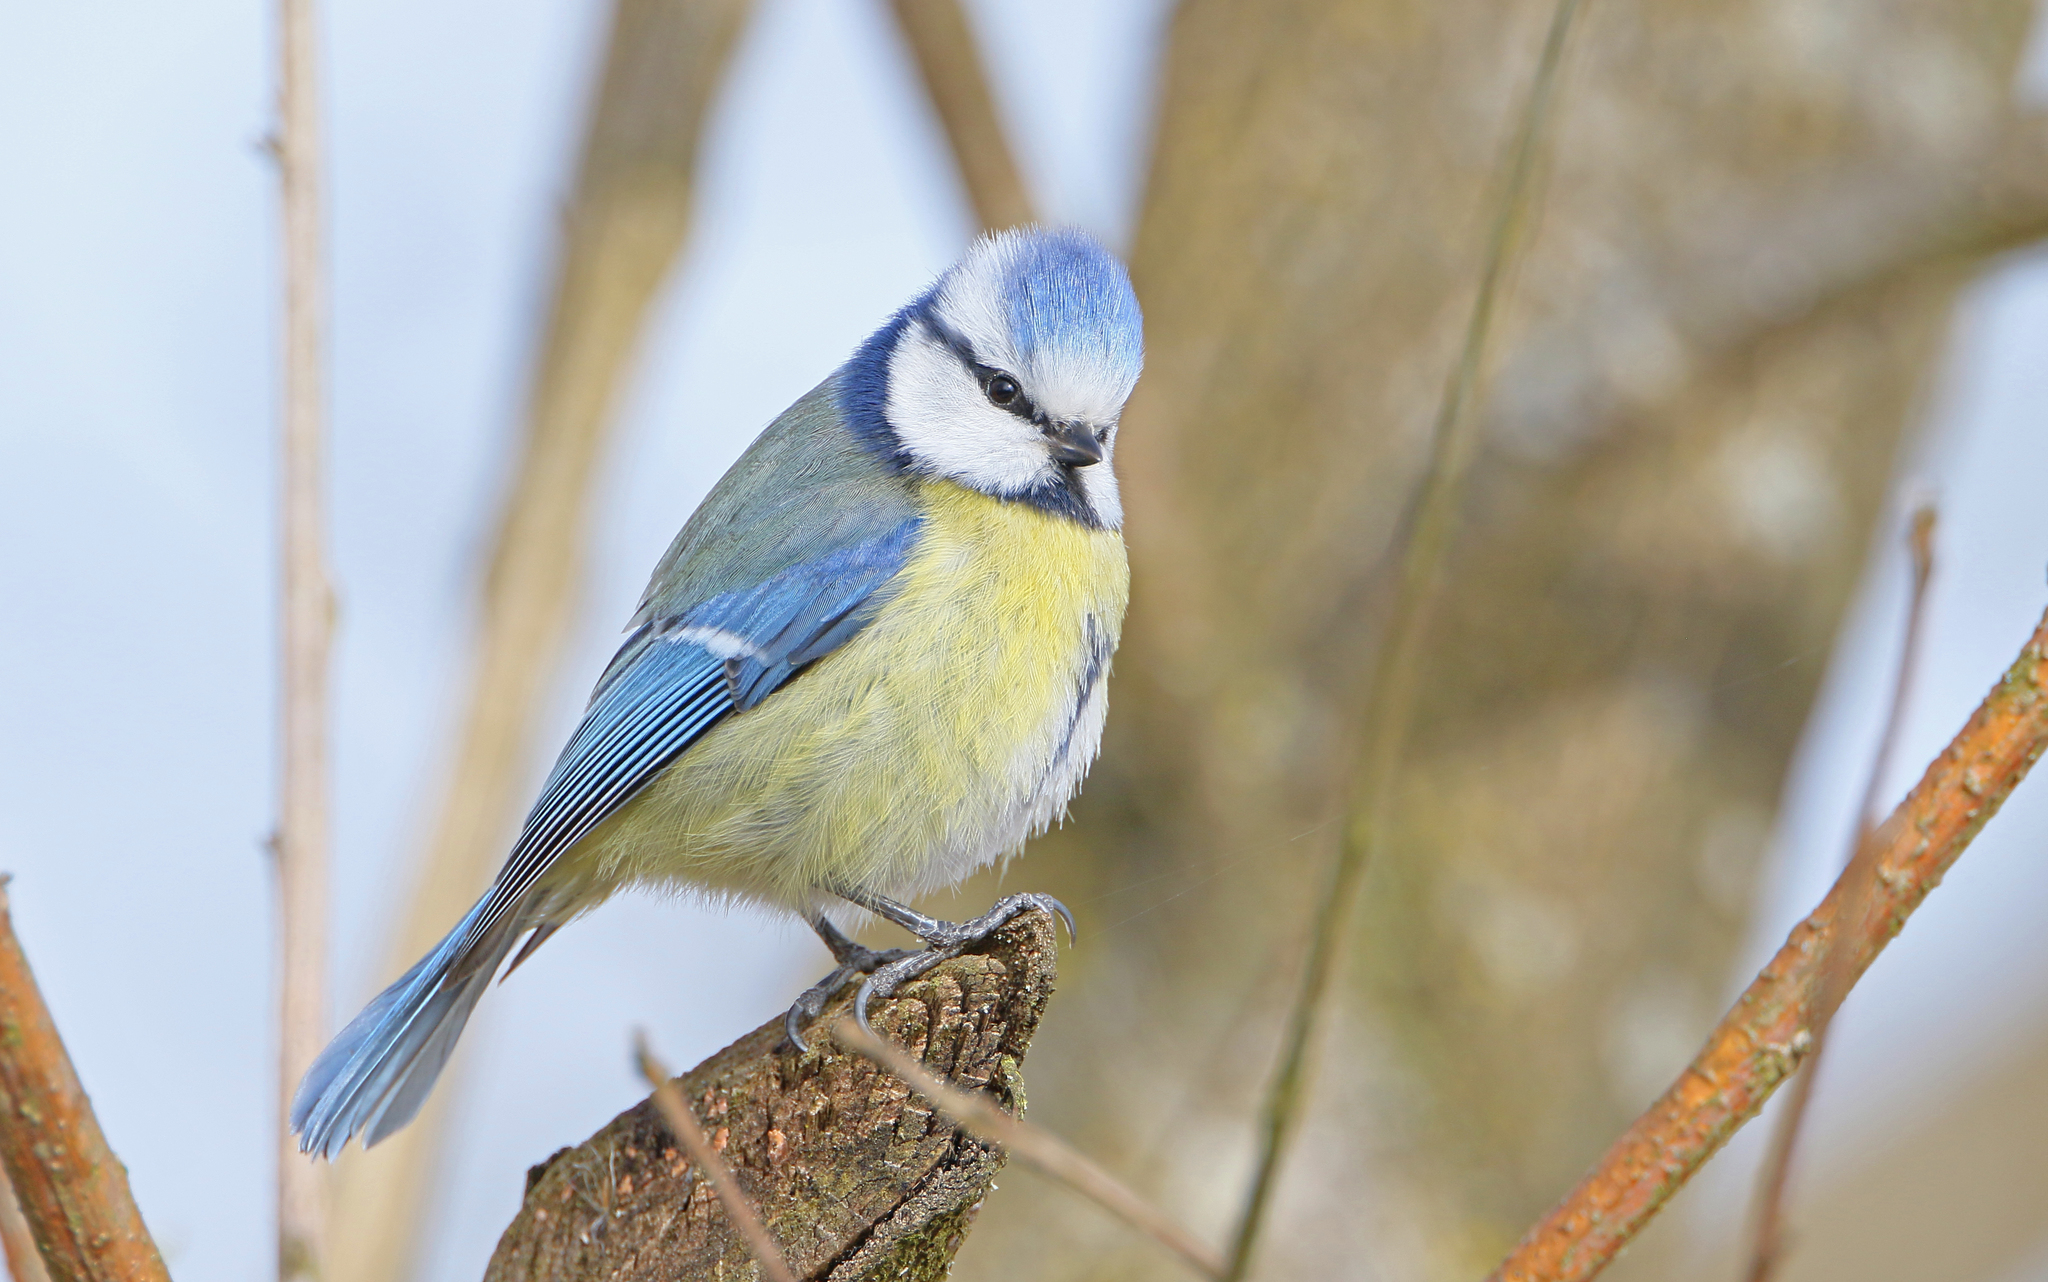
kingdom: Animalia
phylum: Chordata
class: Aves
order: Passeriformes
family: Paridae
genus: Cyanistes
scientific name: Cyanistes caeruleus
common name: Eurasian blue tit
